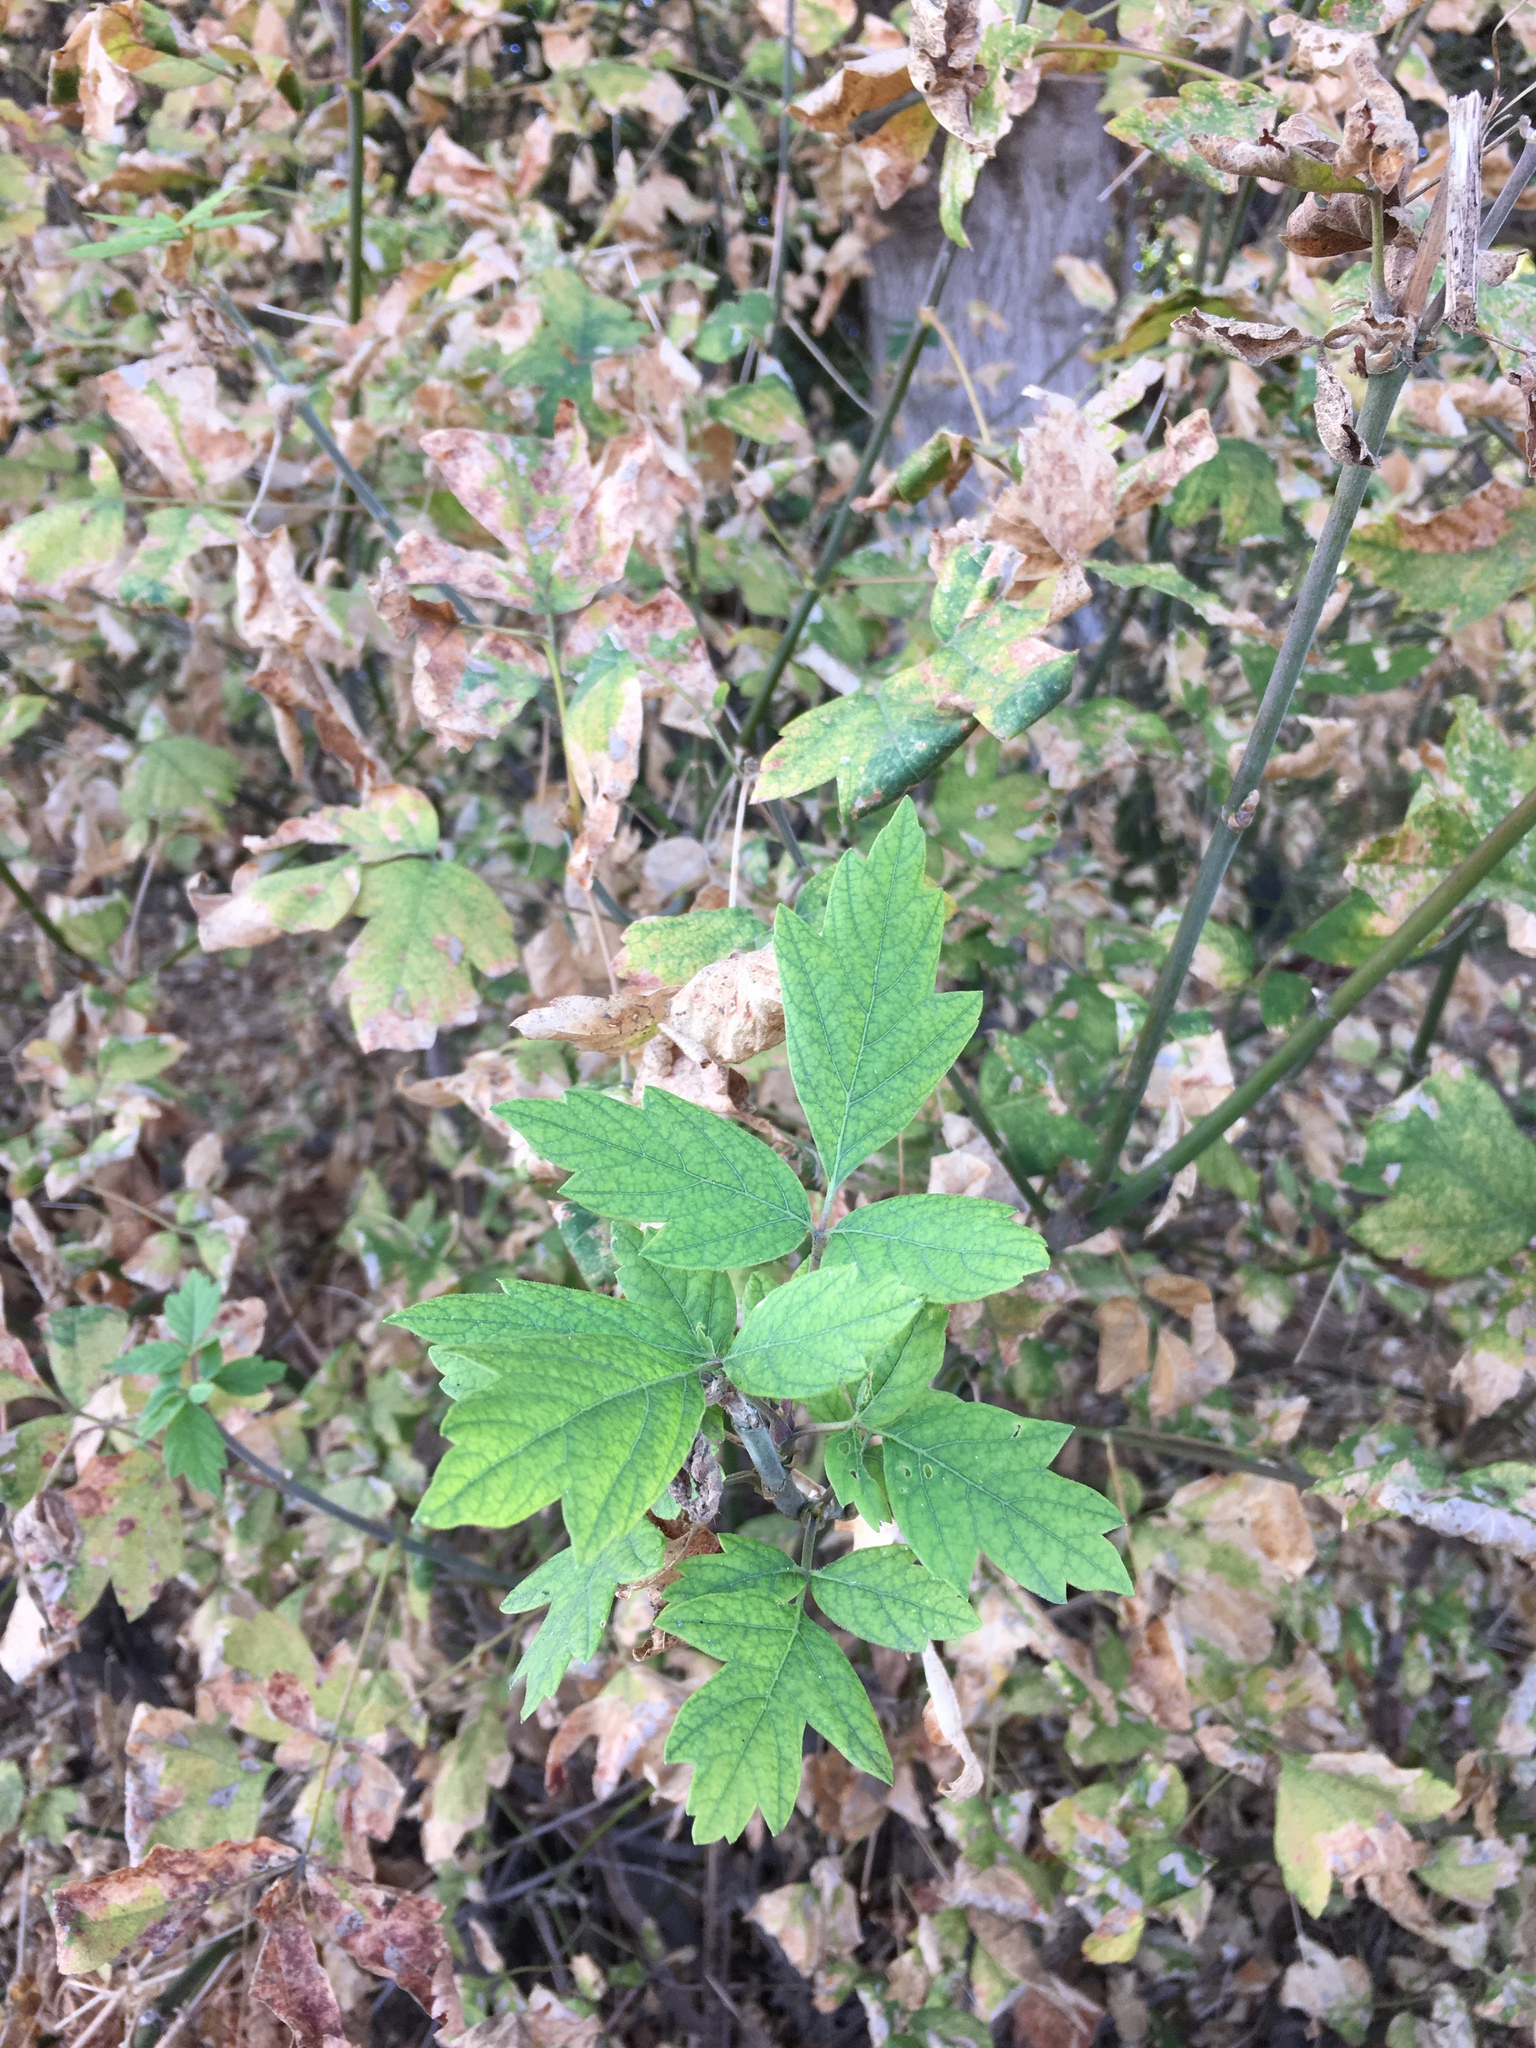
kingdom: Plantae
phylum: Tracheophyta
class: Magnoliopsida
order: Sapindales
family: Sapindaceae
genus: Acer
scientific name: Acer negundo
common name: Ashleaf maple
